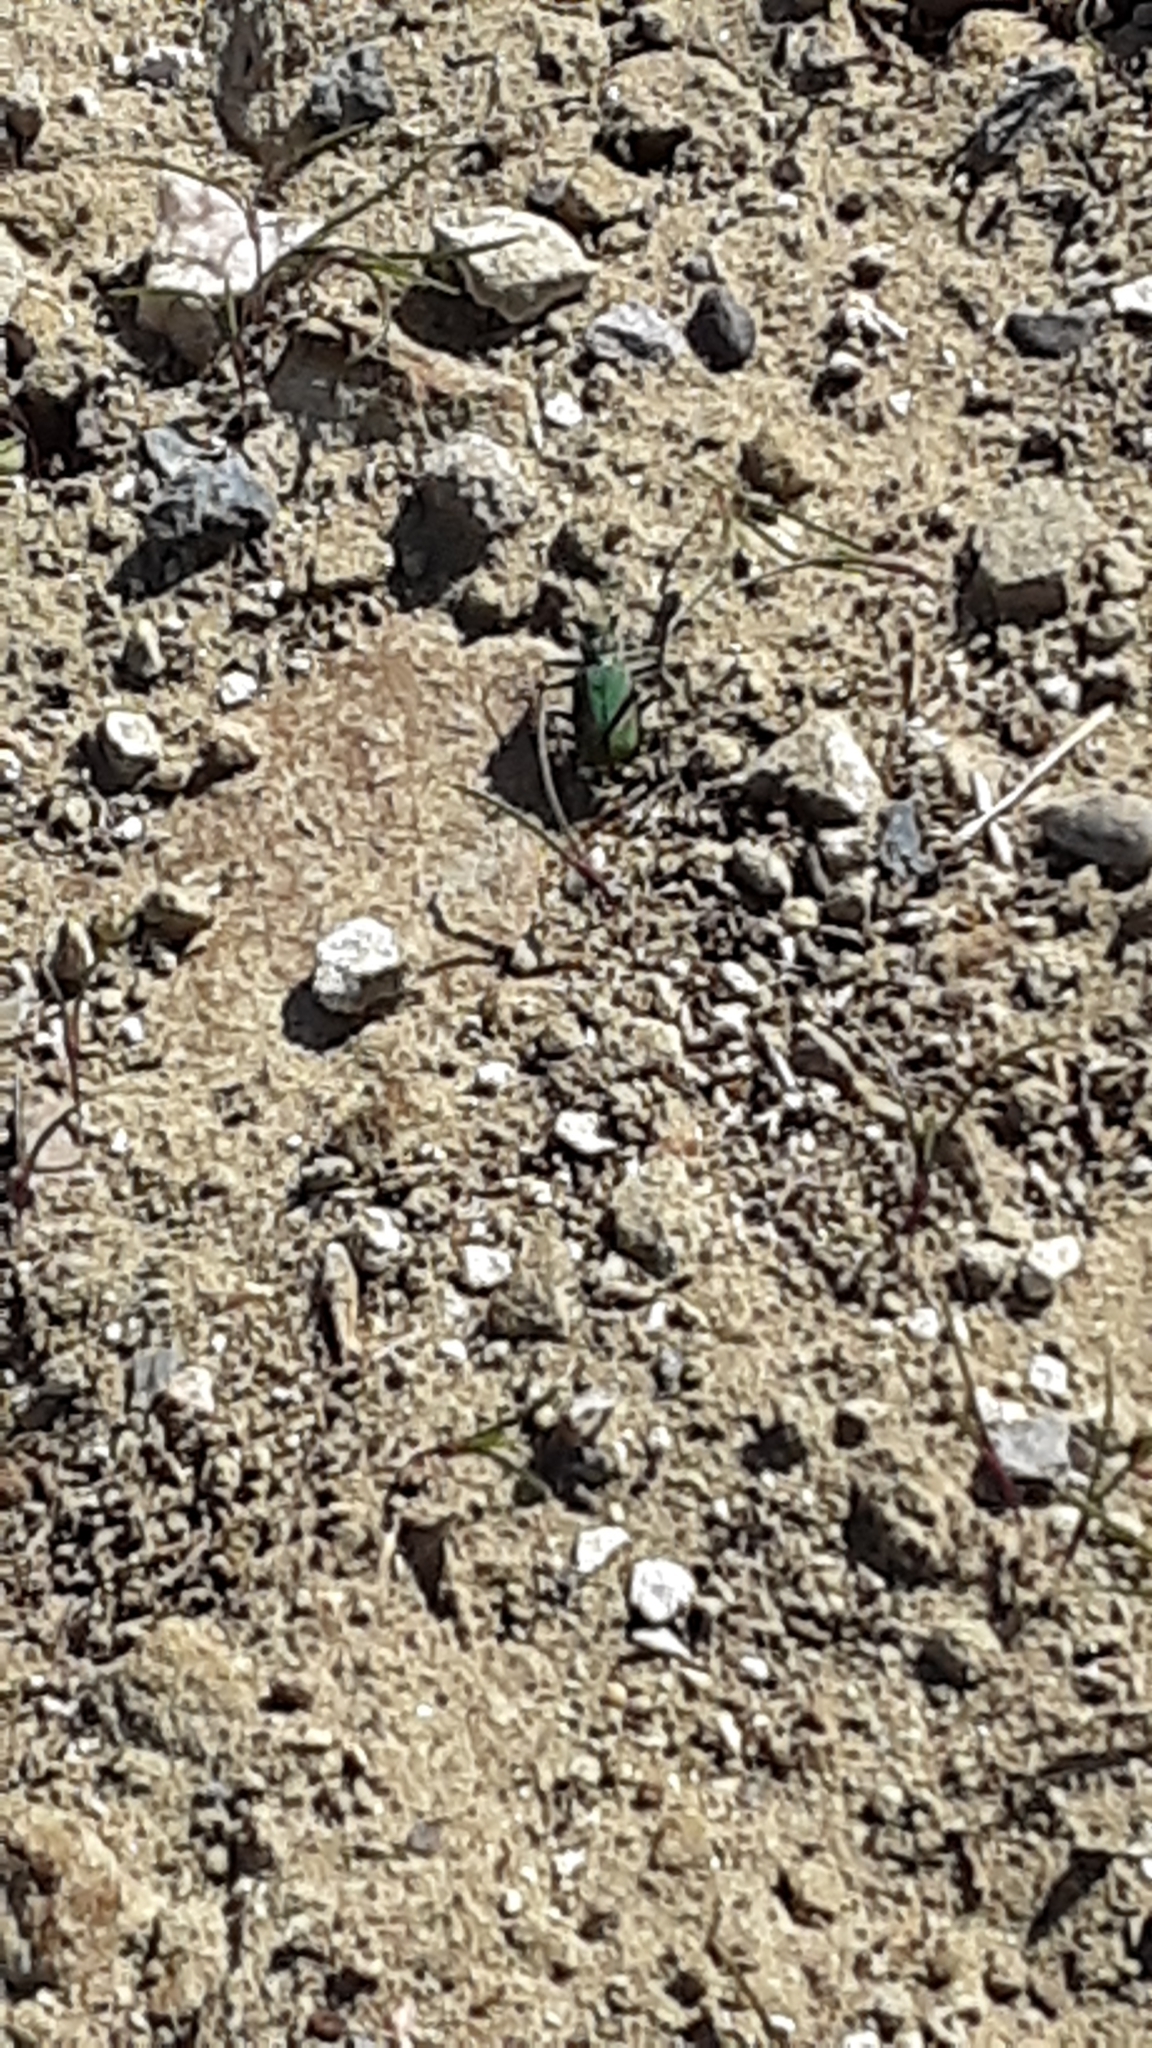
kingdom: Animalia
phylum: Arthropoda
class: Insecta
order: Coleoptera
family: Carabidae
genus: Cicindela
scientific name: Cicindela purpurea
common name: Cow path tiger beetle
